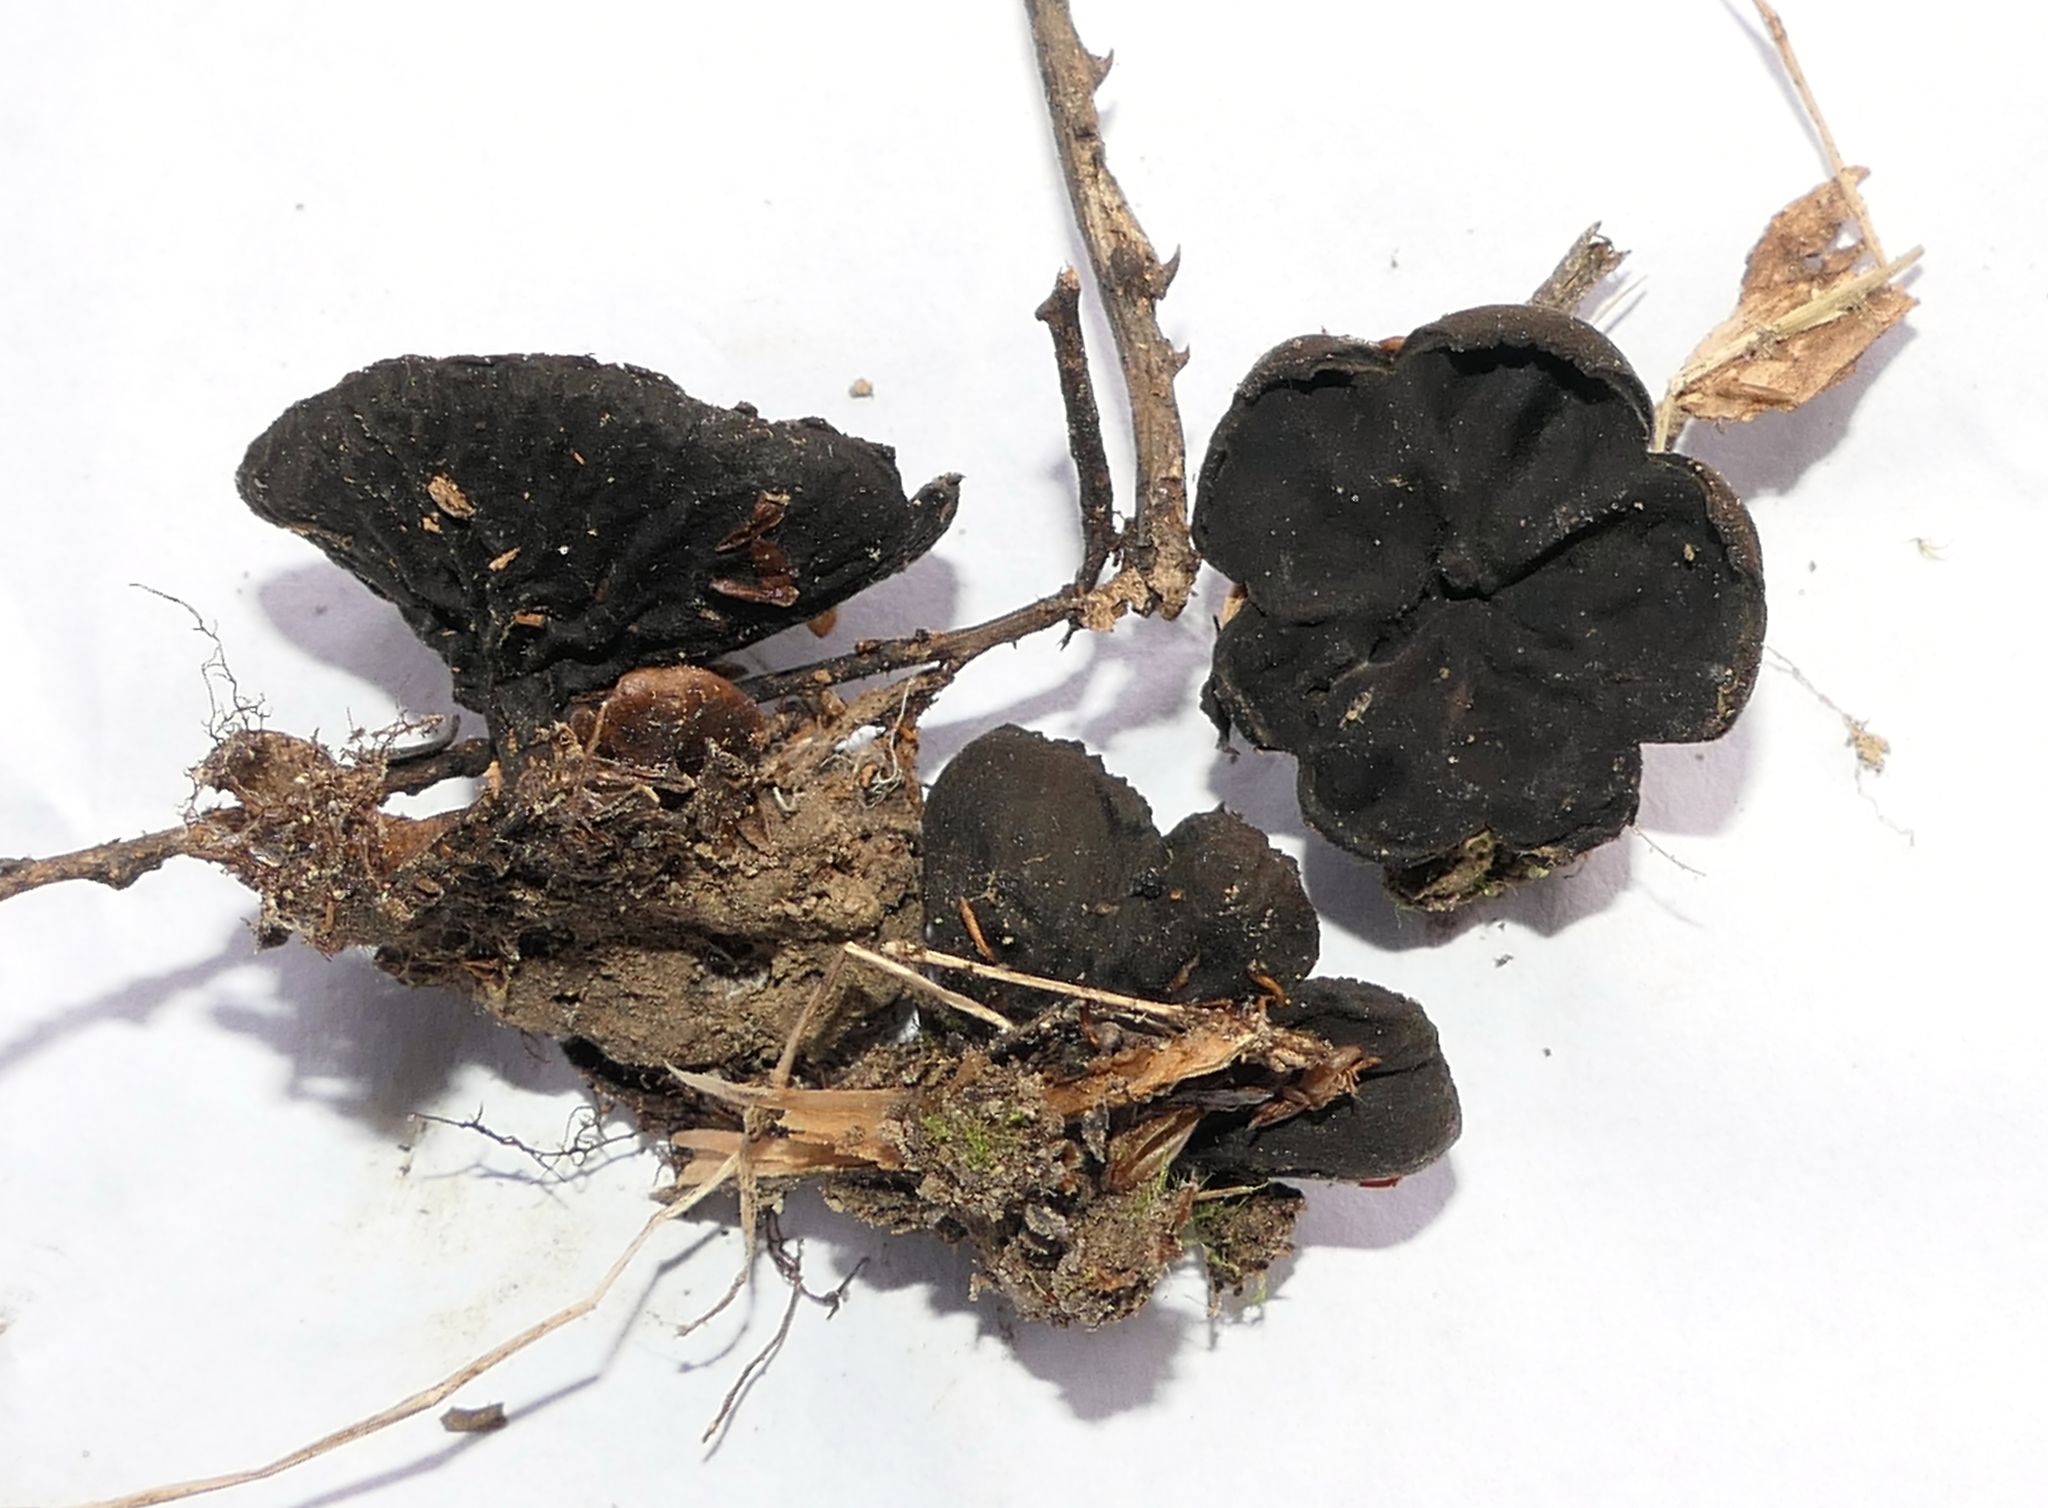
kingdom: Fungi
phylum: Ascomycota
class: Pezizomycetes
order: Pezizales
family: Sarcosomataceae
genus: Plectania
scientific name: Plectania rhytidia
